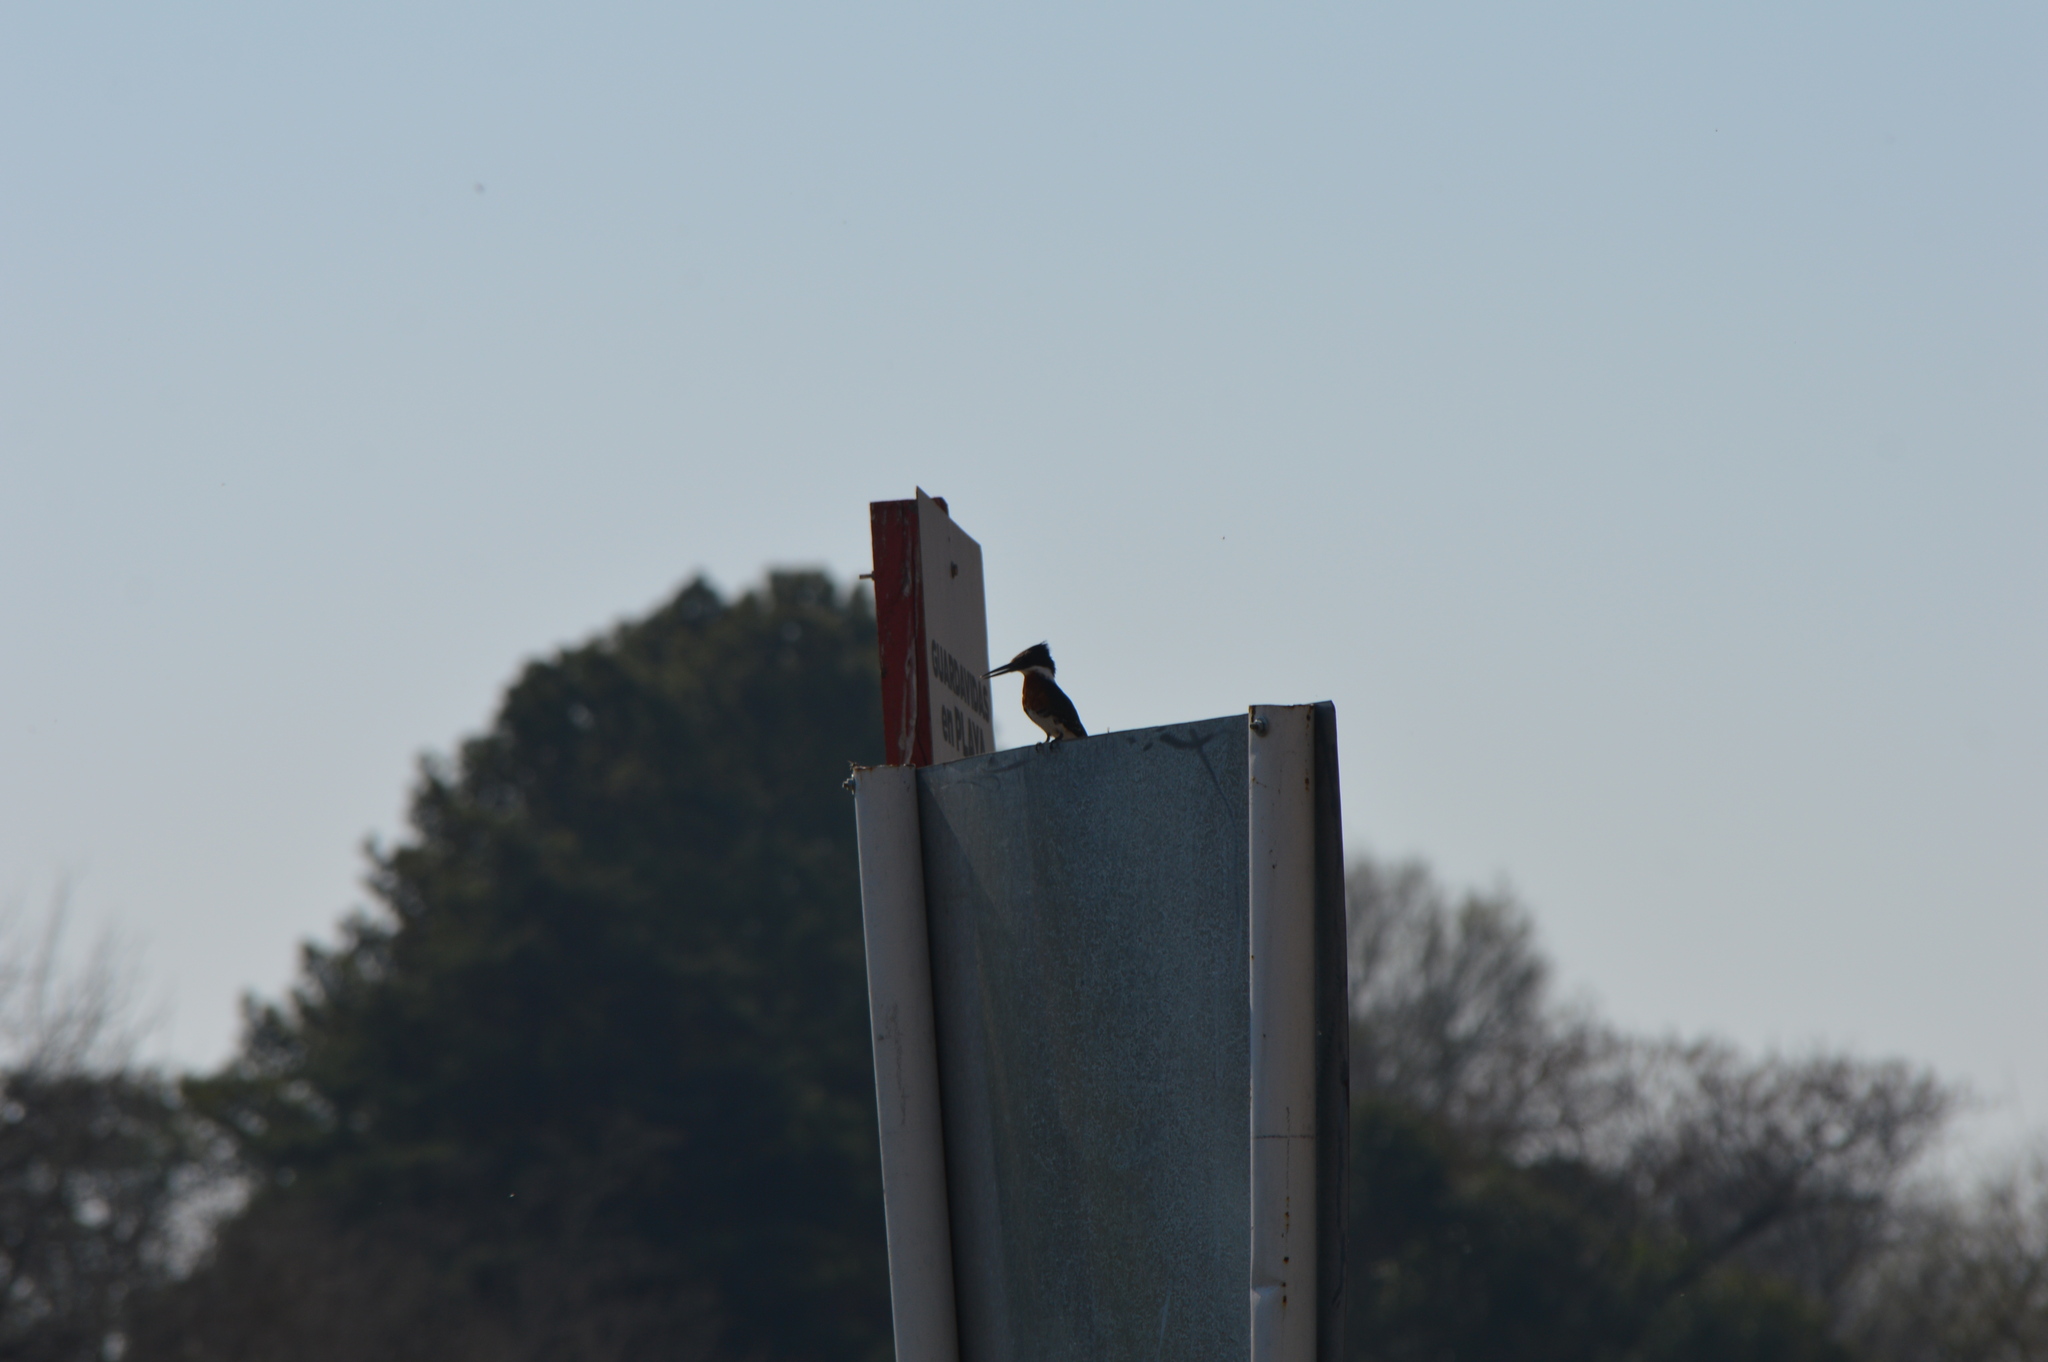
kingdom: Animalia
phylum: Chordata
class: Aves
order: Coraciiformes
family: Alcedinidae
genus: Chloroceryle
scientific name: Chloroceryle americana
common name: Green kingfisher
